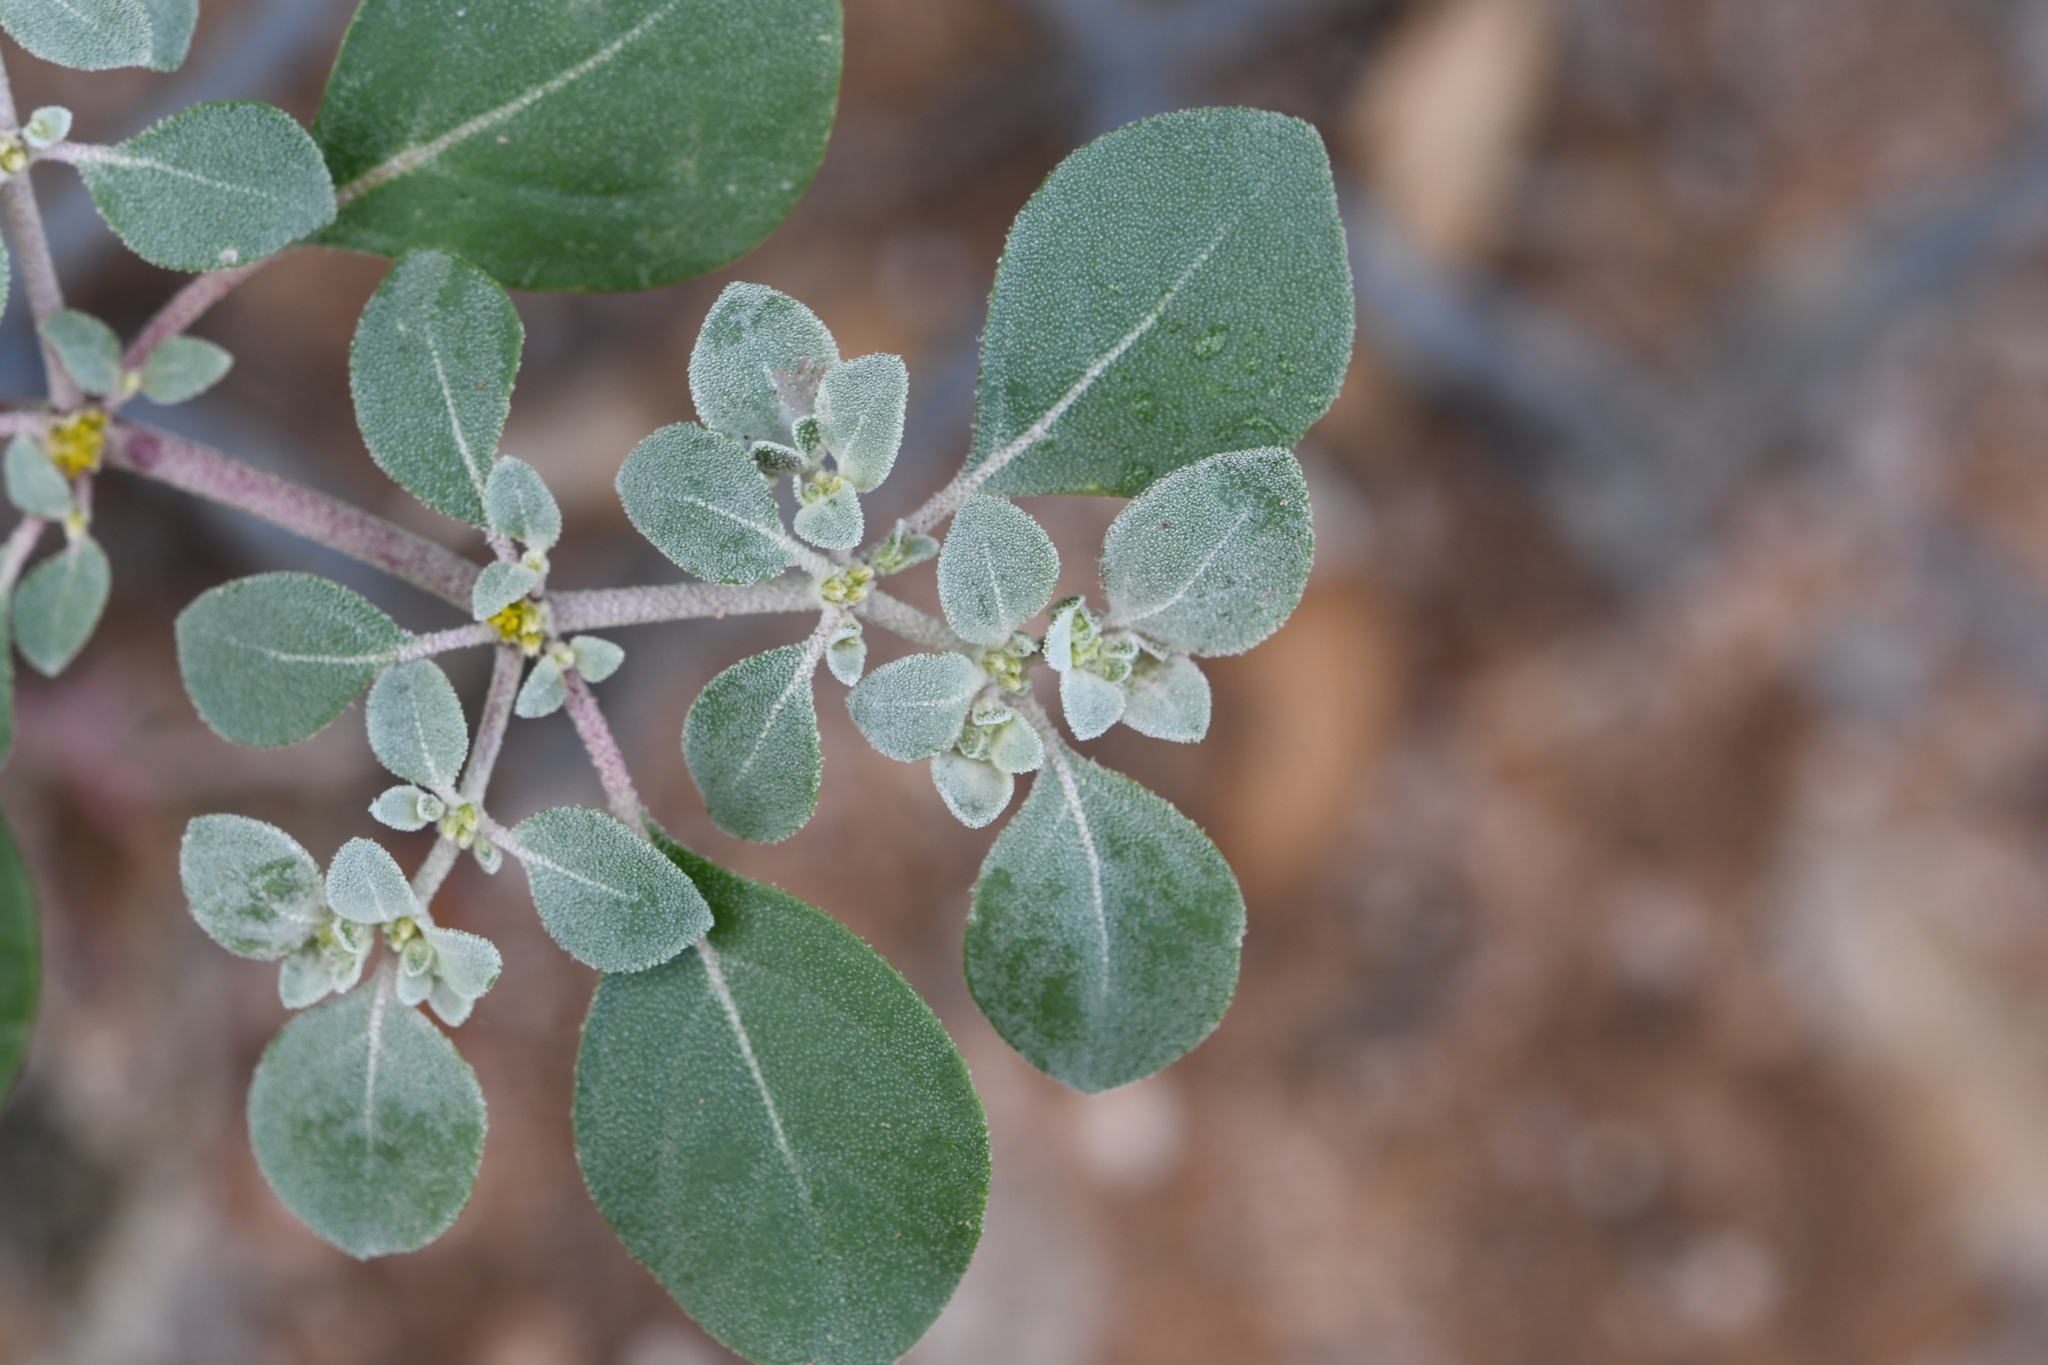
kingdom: Plantae
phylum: Tracheophyta
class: Magnoliopsida
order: Caryophyllales
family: Amaranthaceae
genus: Tidestromia
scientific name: Tidestromia lanuginosa
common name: Woolly tidestromia
